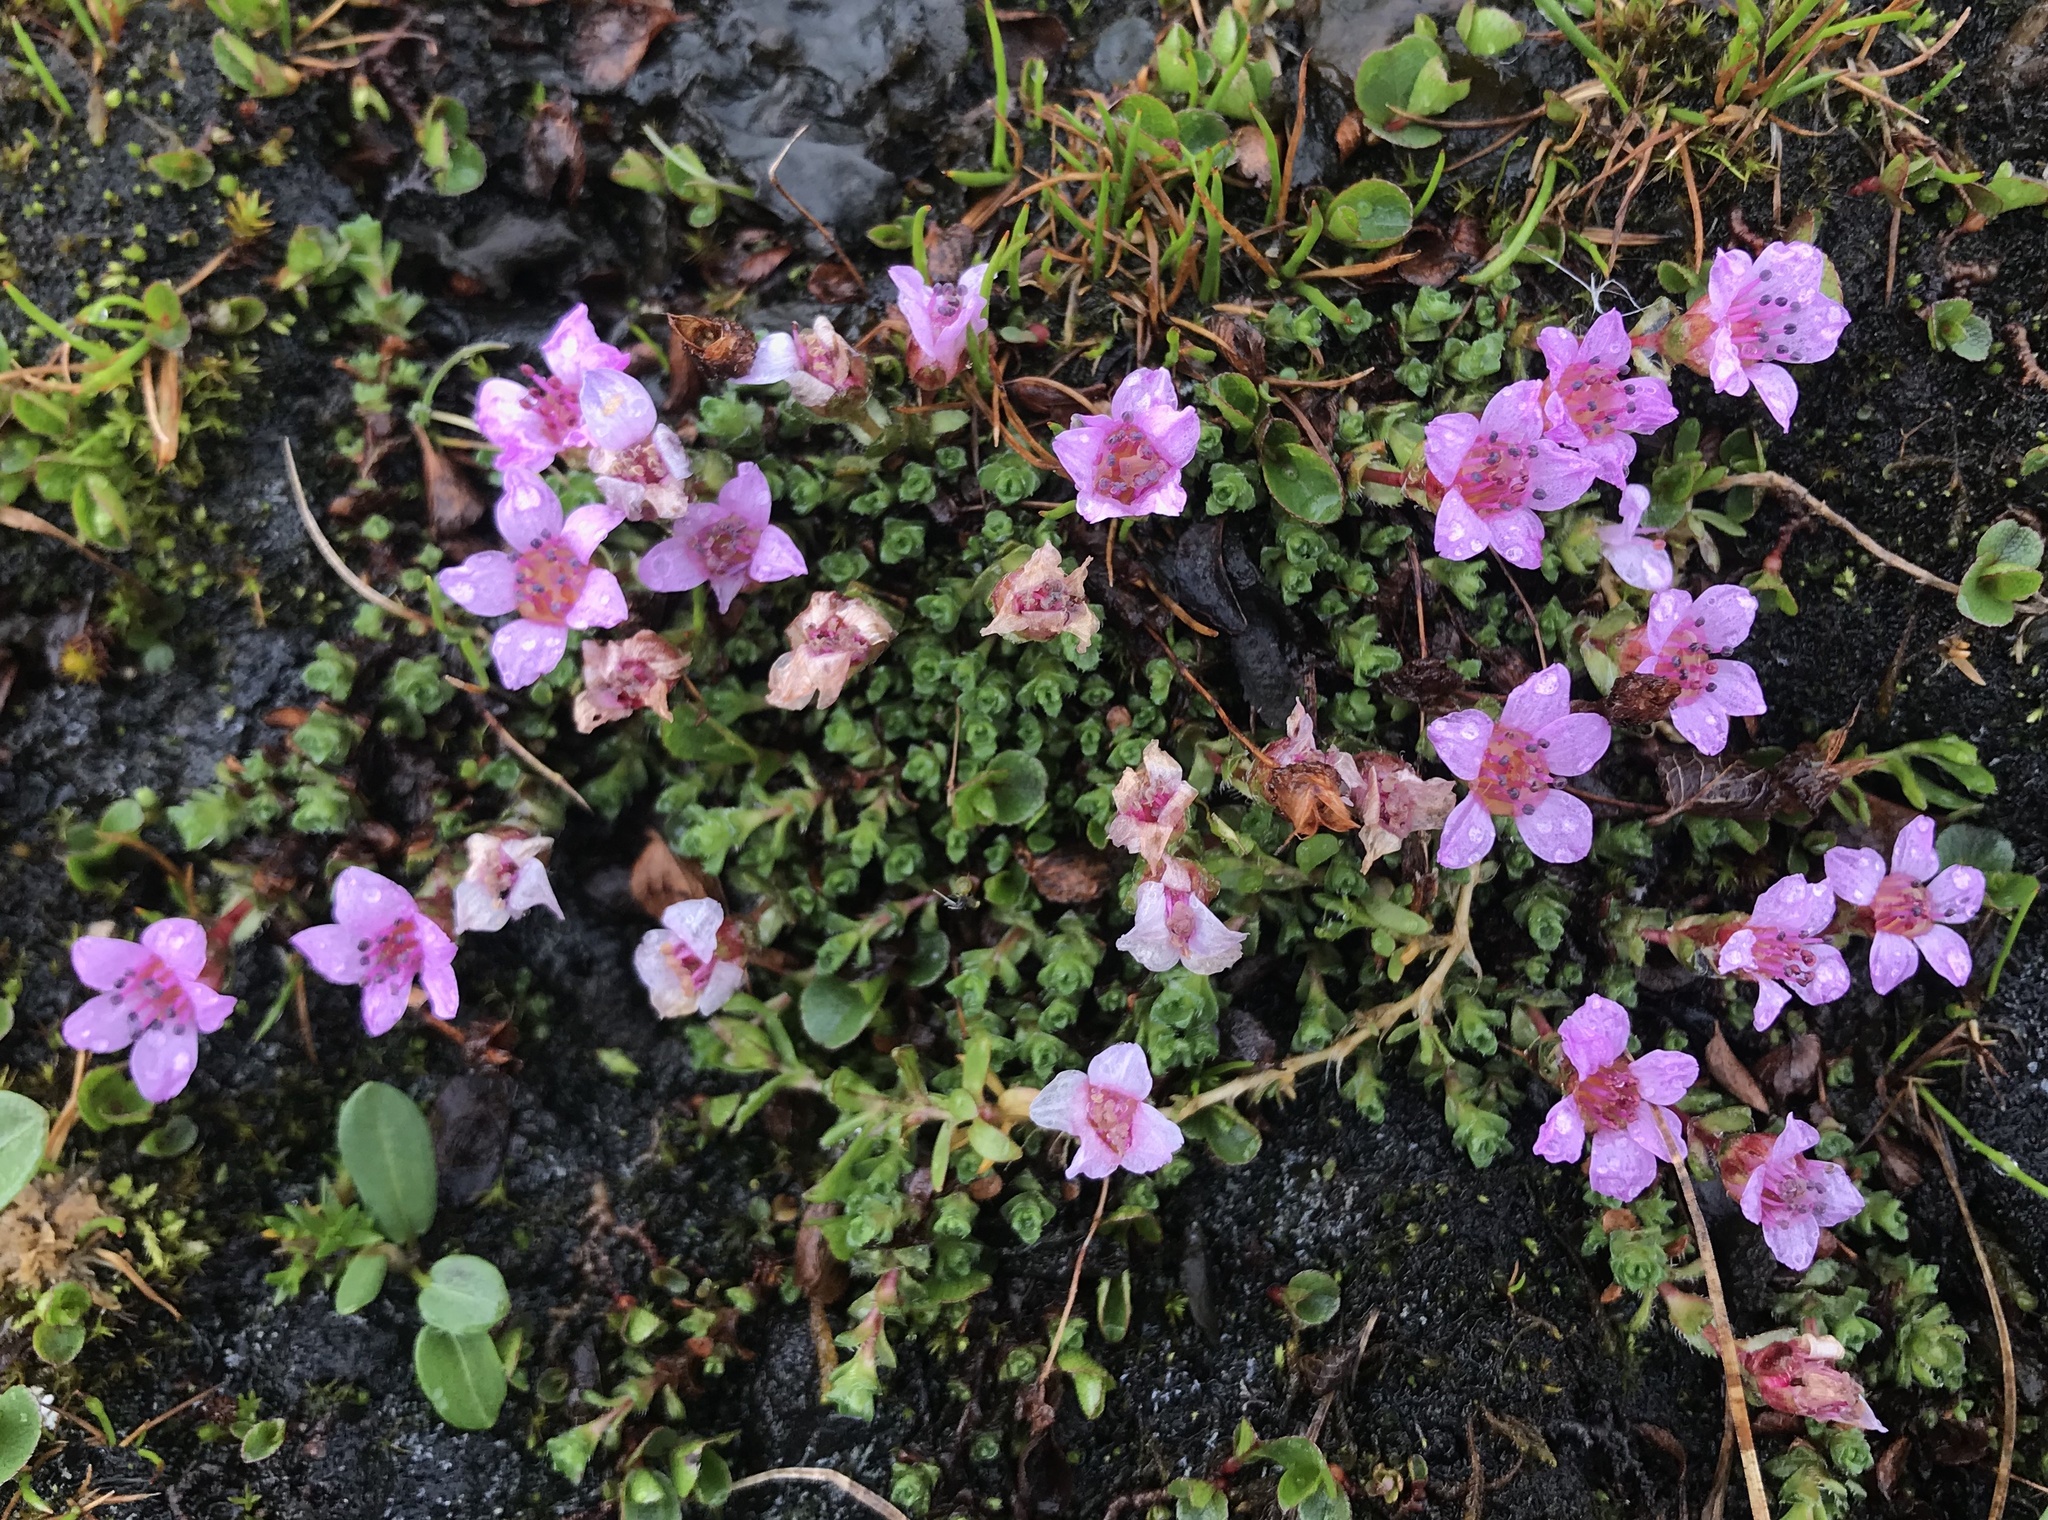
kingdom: Plantae
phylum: Tracheophyta
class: Magnoliopsida
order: Saxifragales
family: Saxifragaceae
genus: Saxifraga
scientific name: Saxifraga oppositifolia
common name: Purple saxifrage
